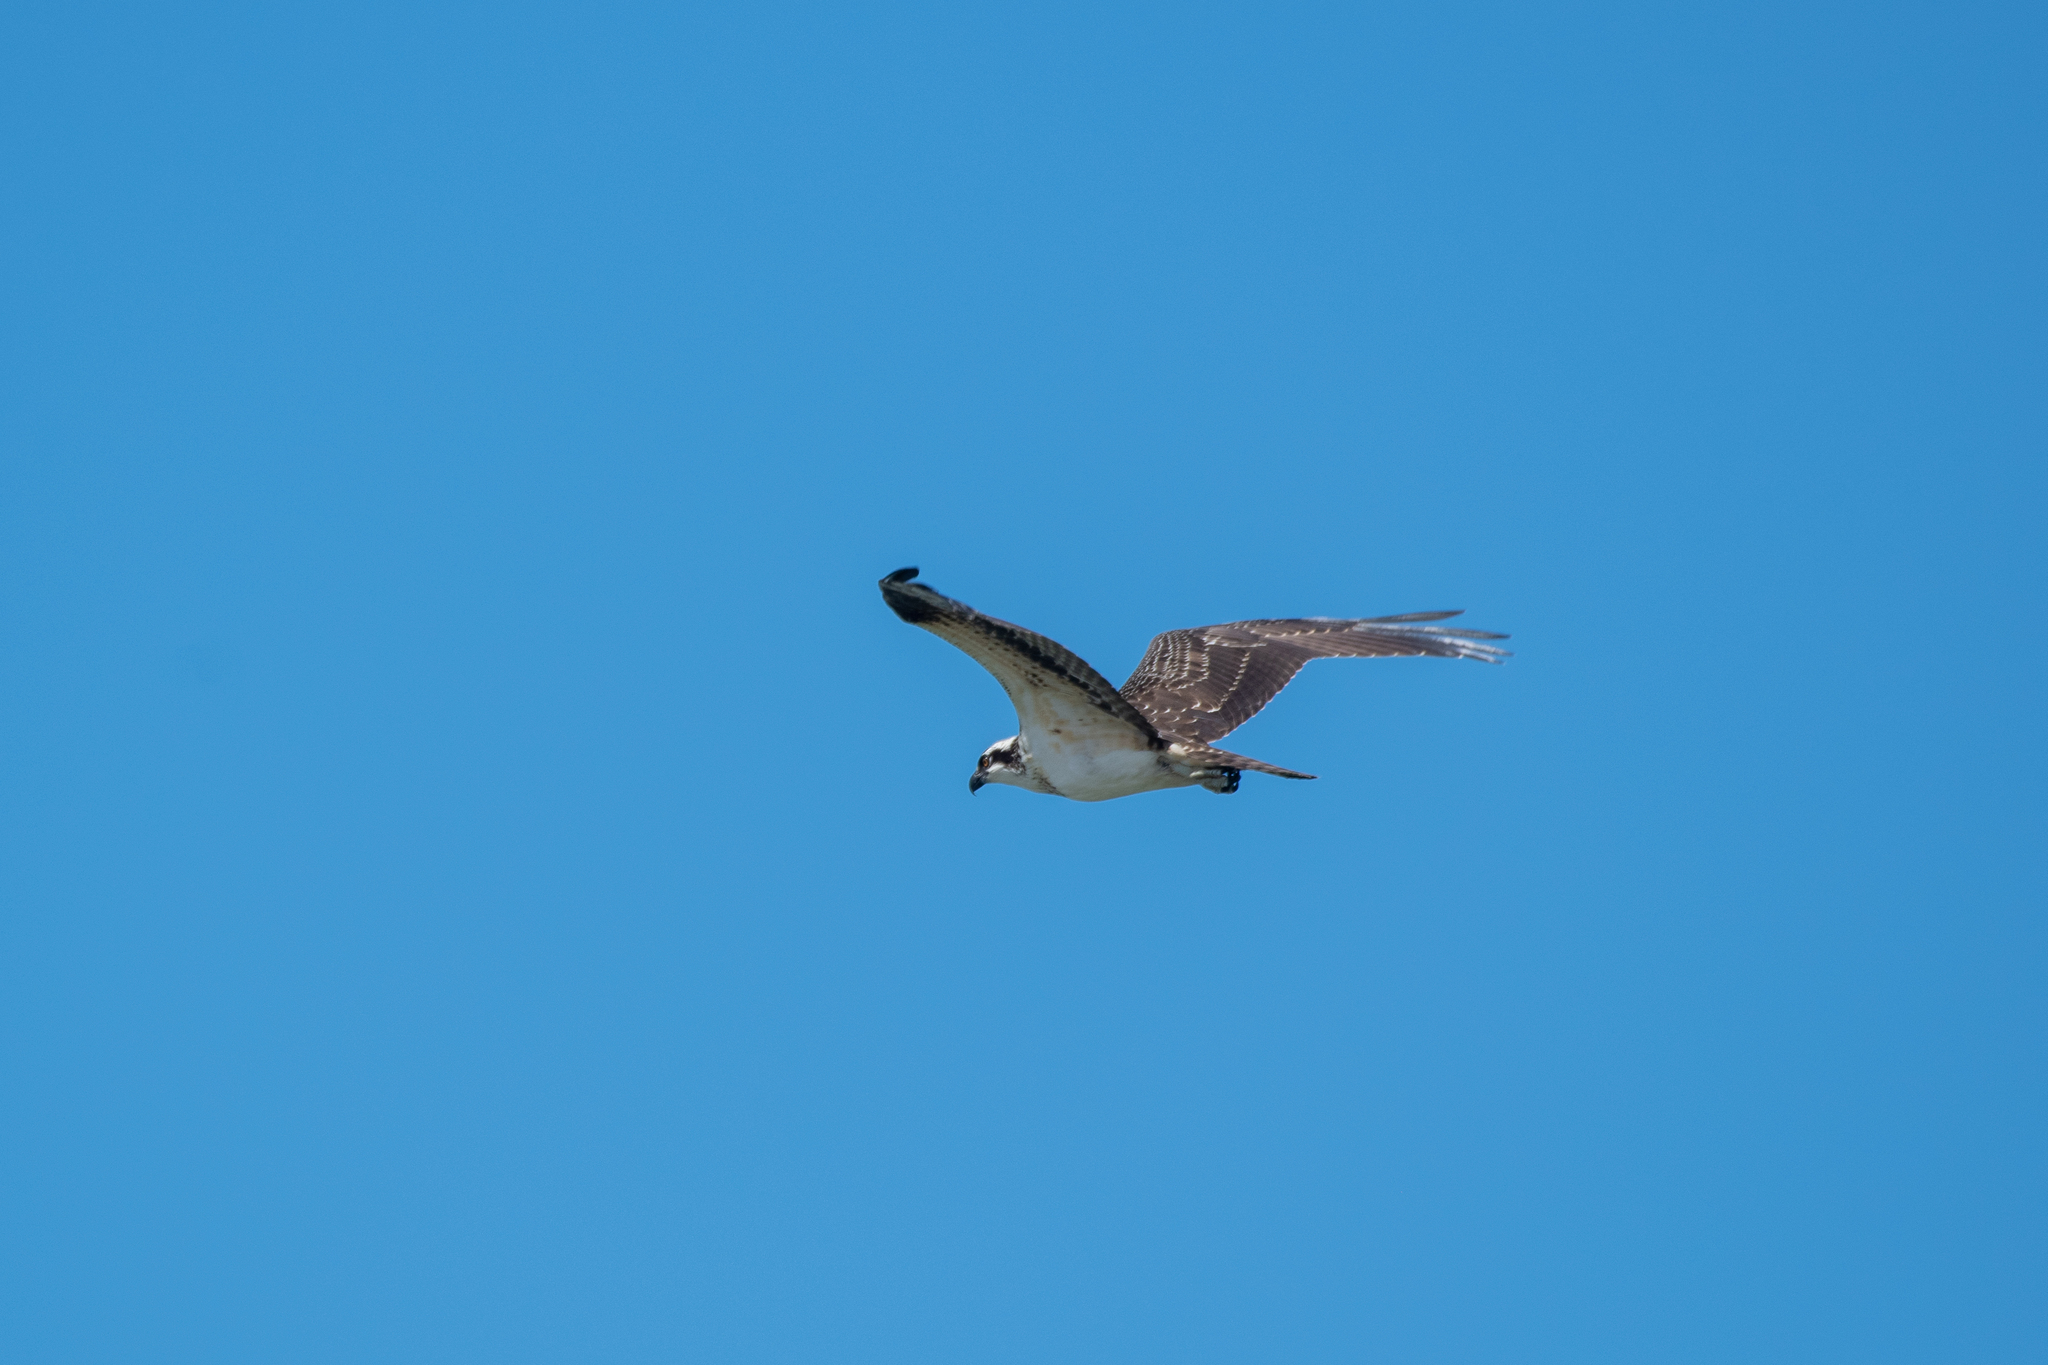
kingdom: Animalia
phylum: Chordata
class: Aves
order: Accipitriformes
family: Pandionidae
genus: Pandion
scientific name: Pandion haliaetus
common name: Osprey
